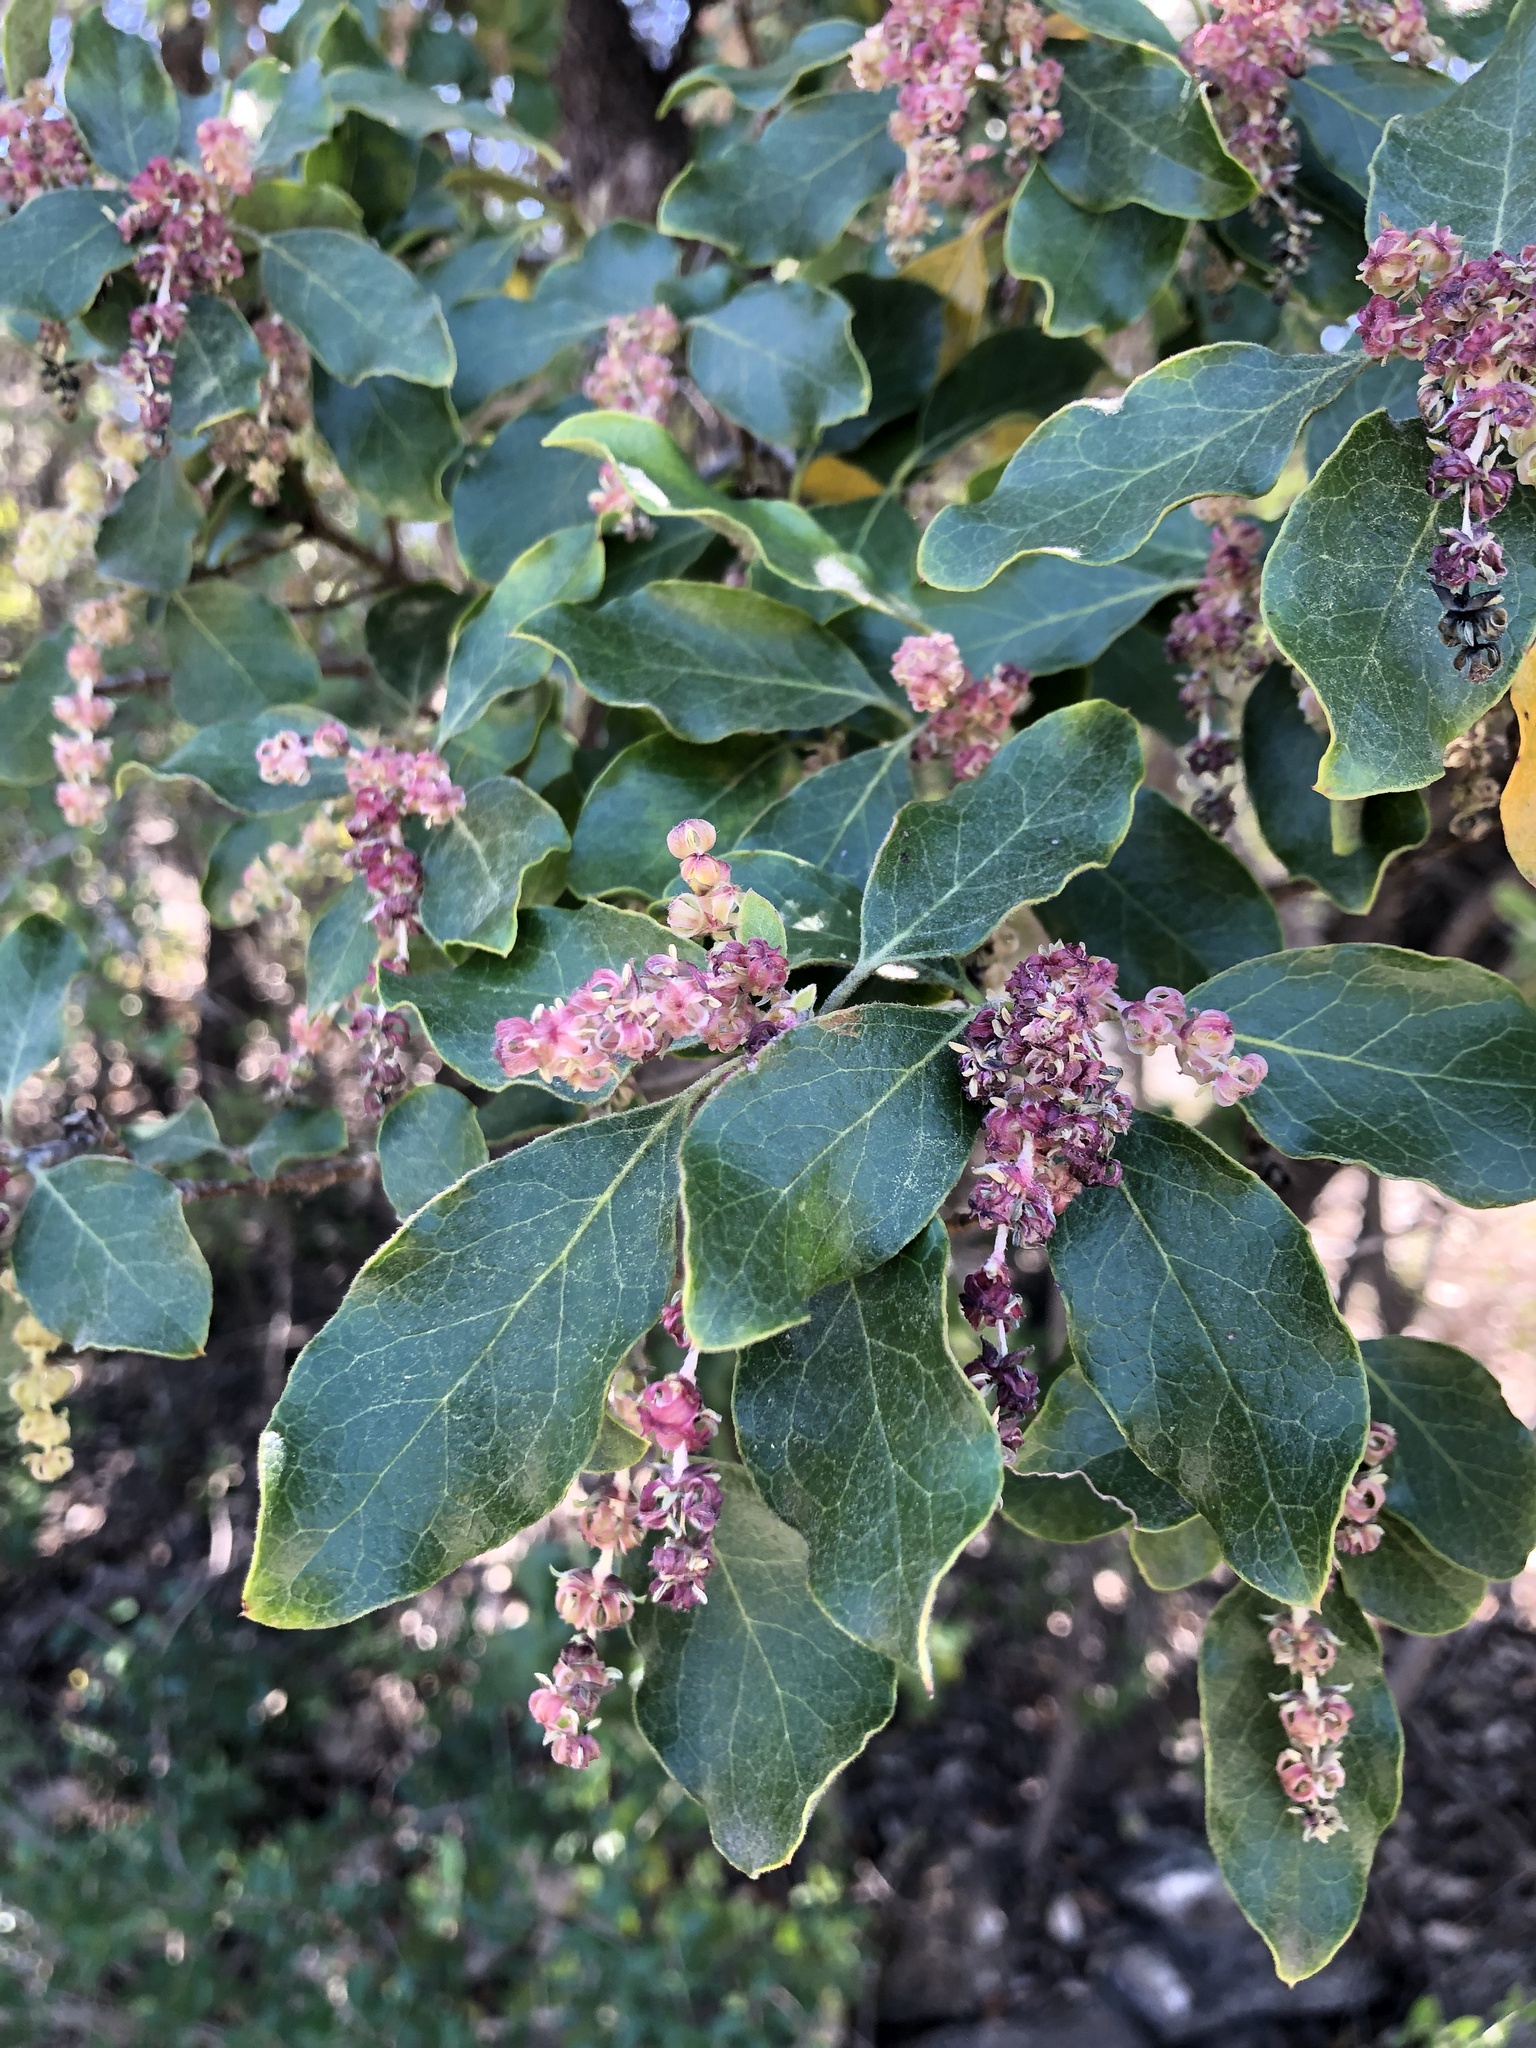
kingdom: Plantae
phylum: Tracheophyta
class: Magnoliopsida
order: Garryales
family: Garryaceae
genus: Garrya
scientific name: Garrya lindheimeri
